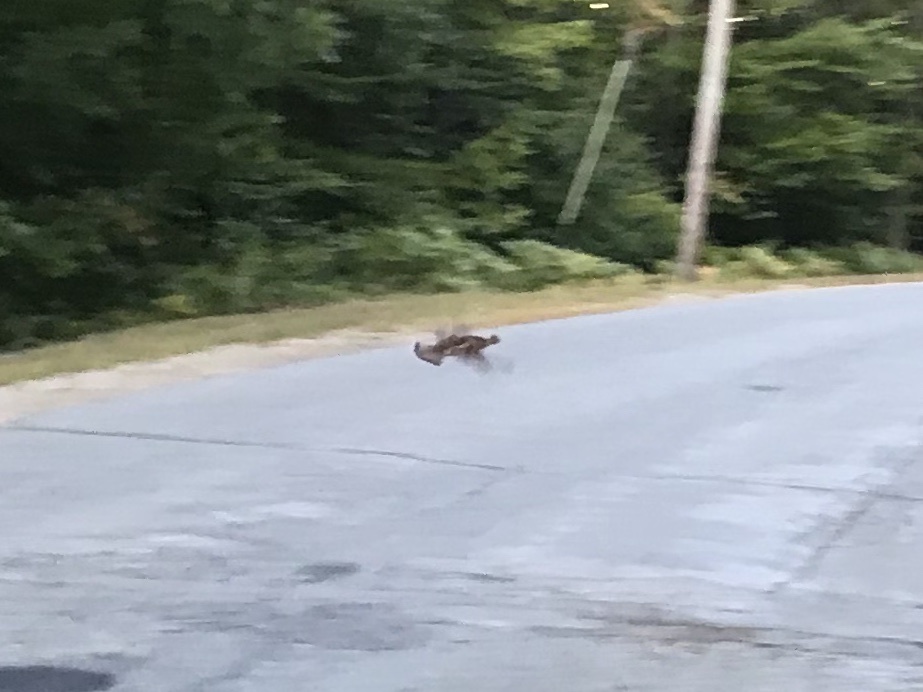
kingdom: Animalia
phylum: Chordata
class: Aves
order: Galliformes
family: Phasianidae
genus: Bonasa
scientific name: Bonasa umbellus
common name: Ruffed grouse
